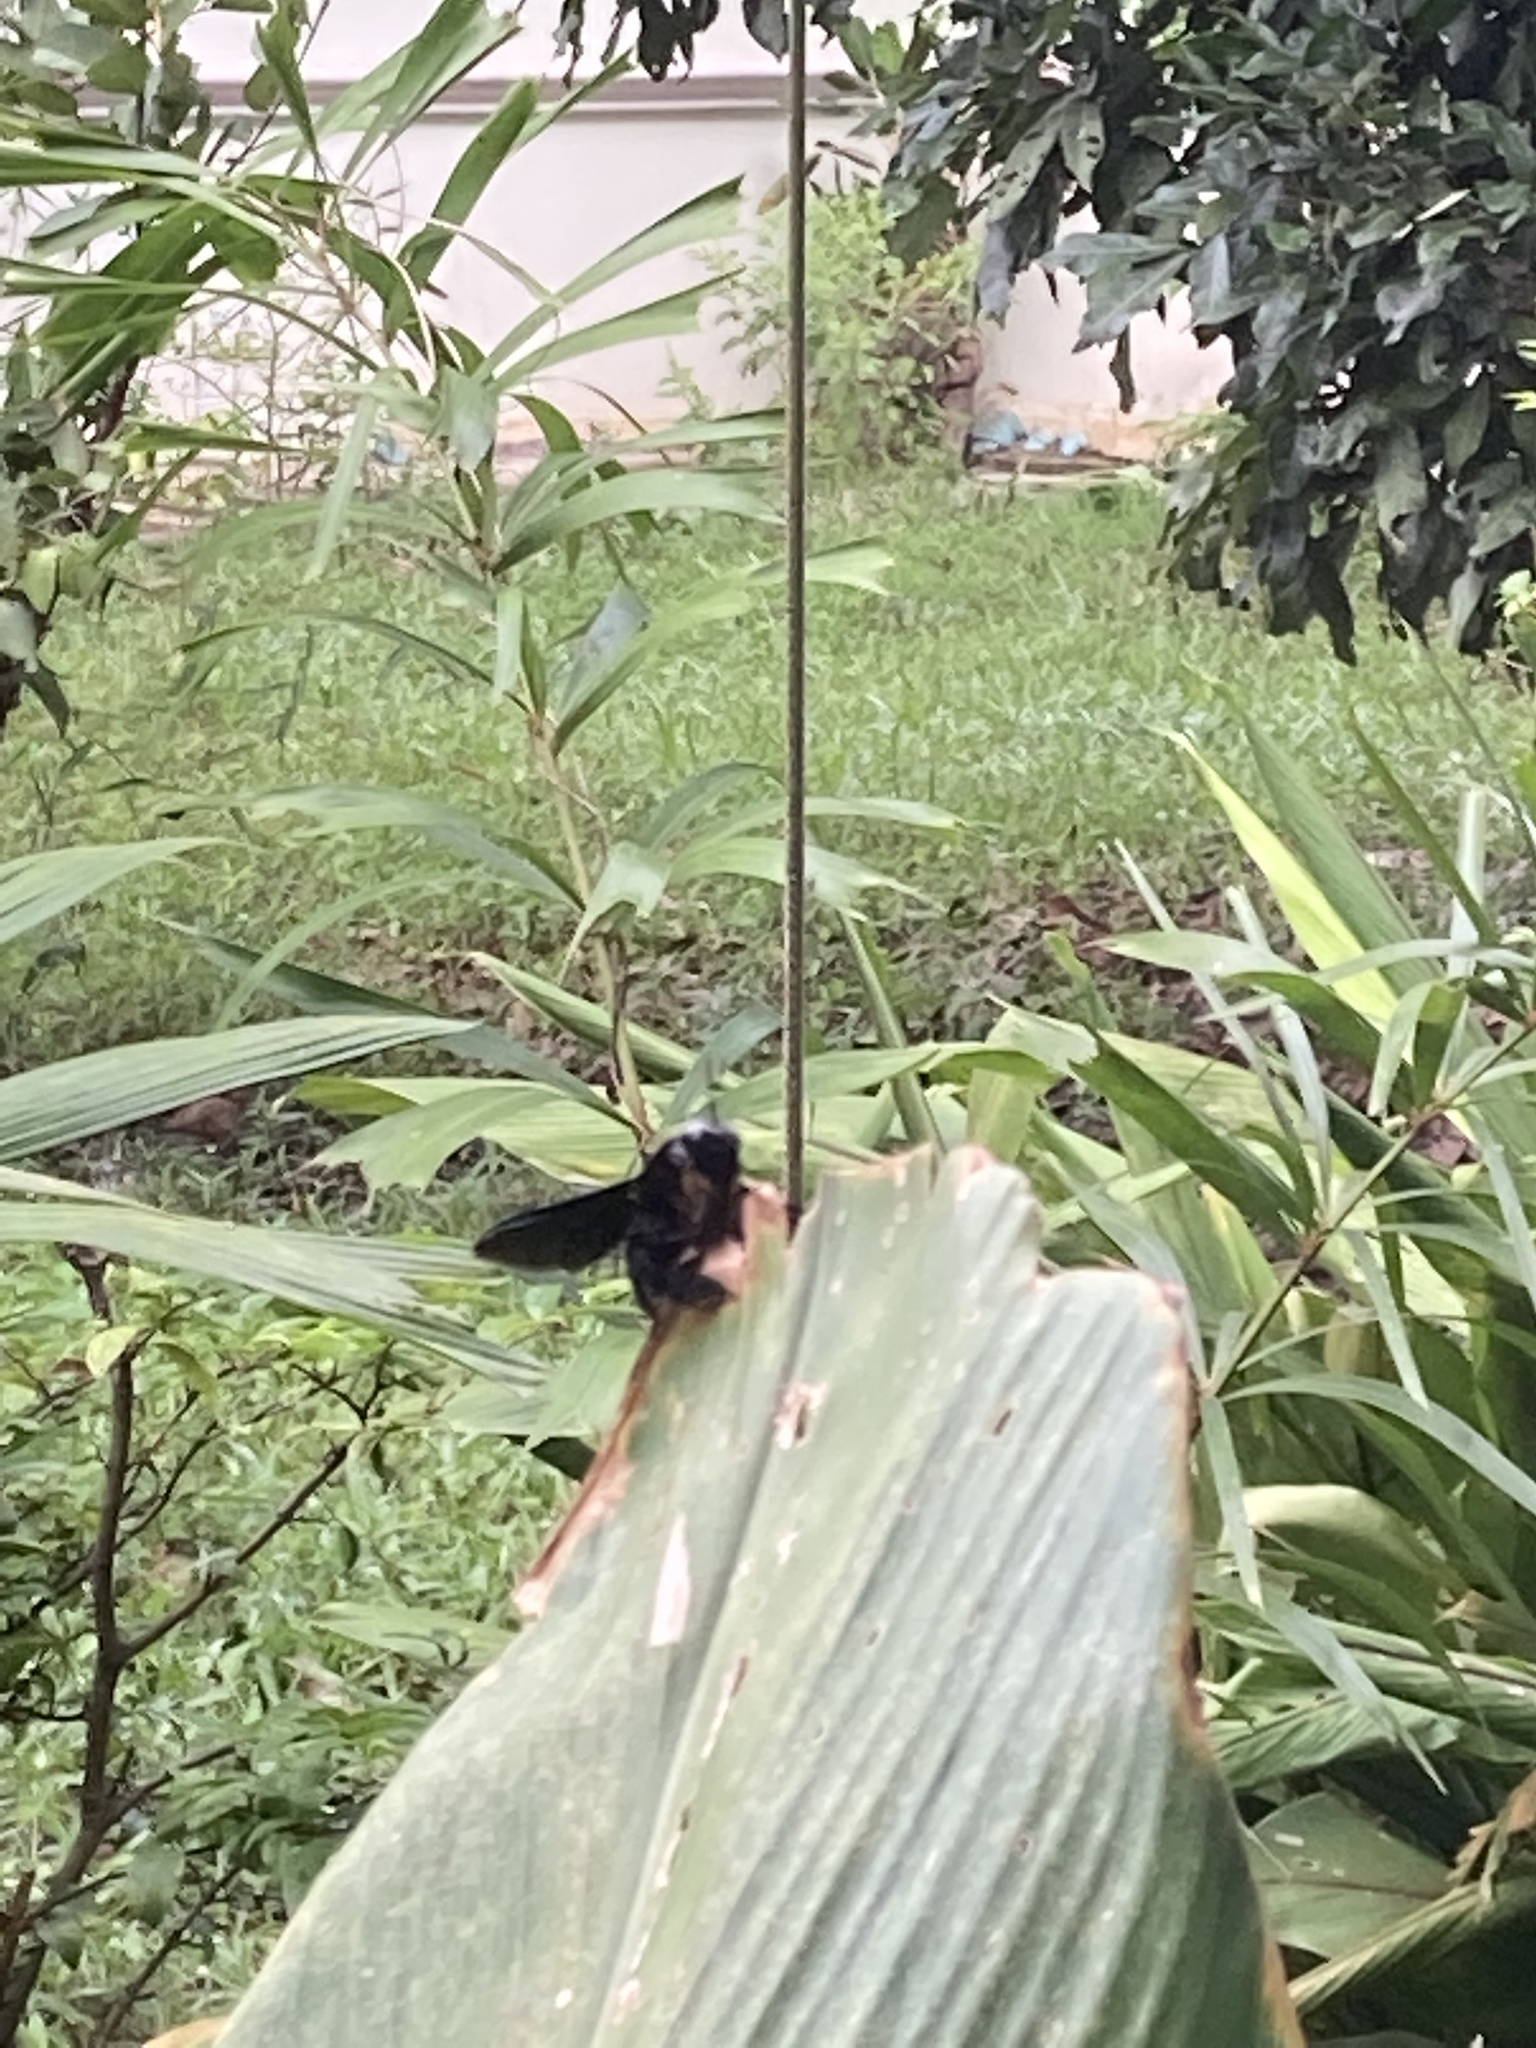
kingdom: Animalia
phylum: Arthropoda
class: Insecta
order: Hymenoptera
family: Apidae
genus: Xylocopa
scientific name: Xylocopa latipes
